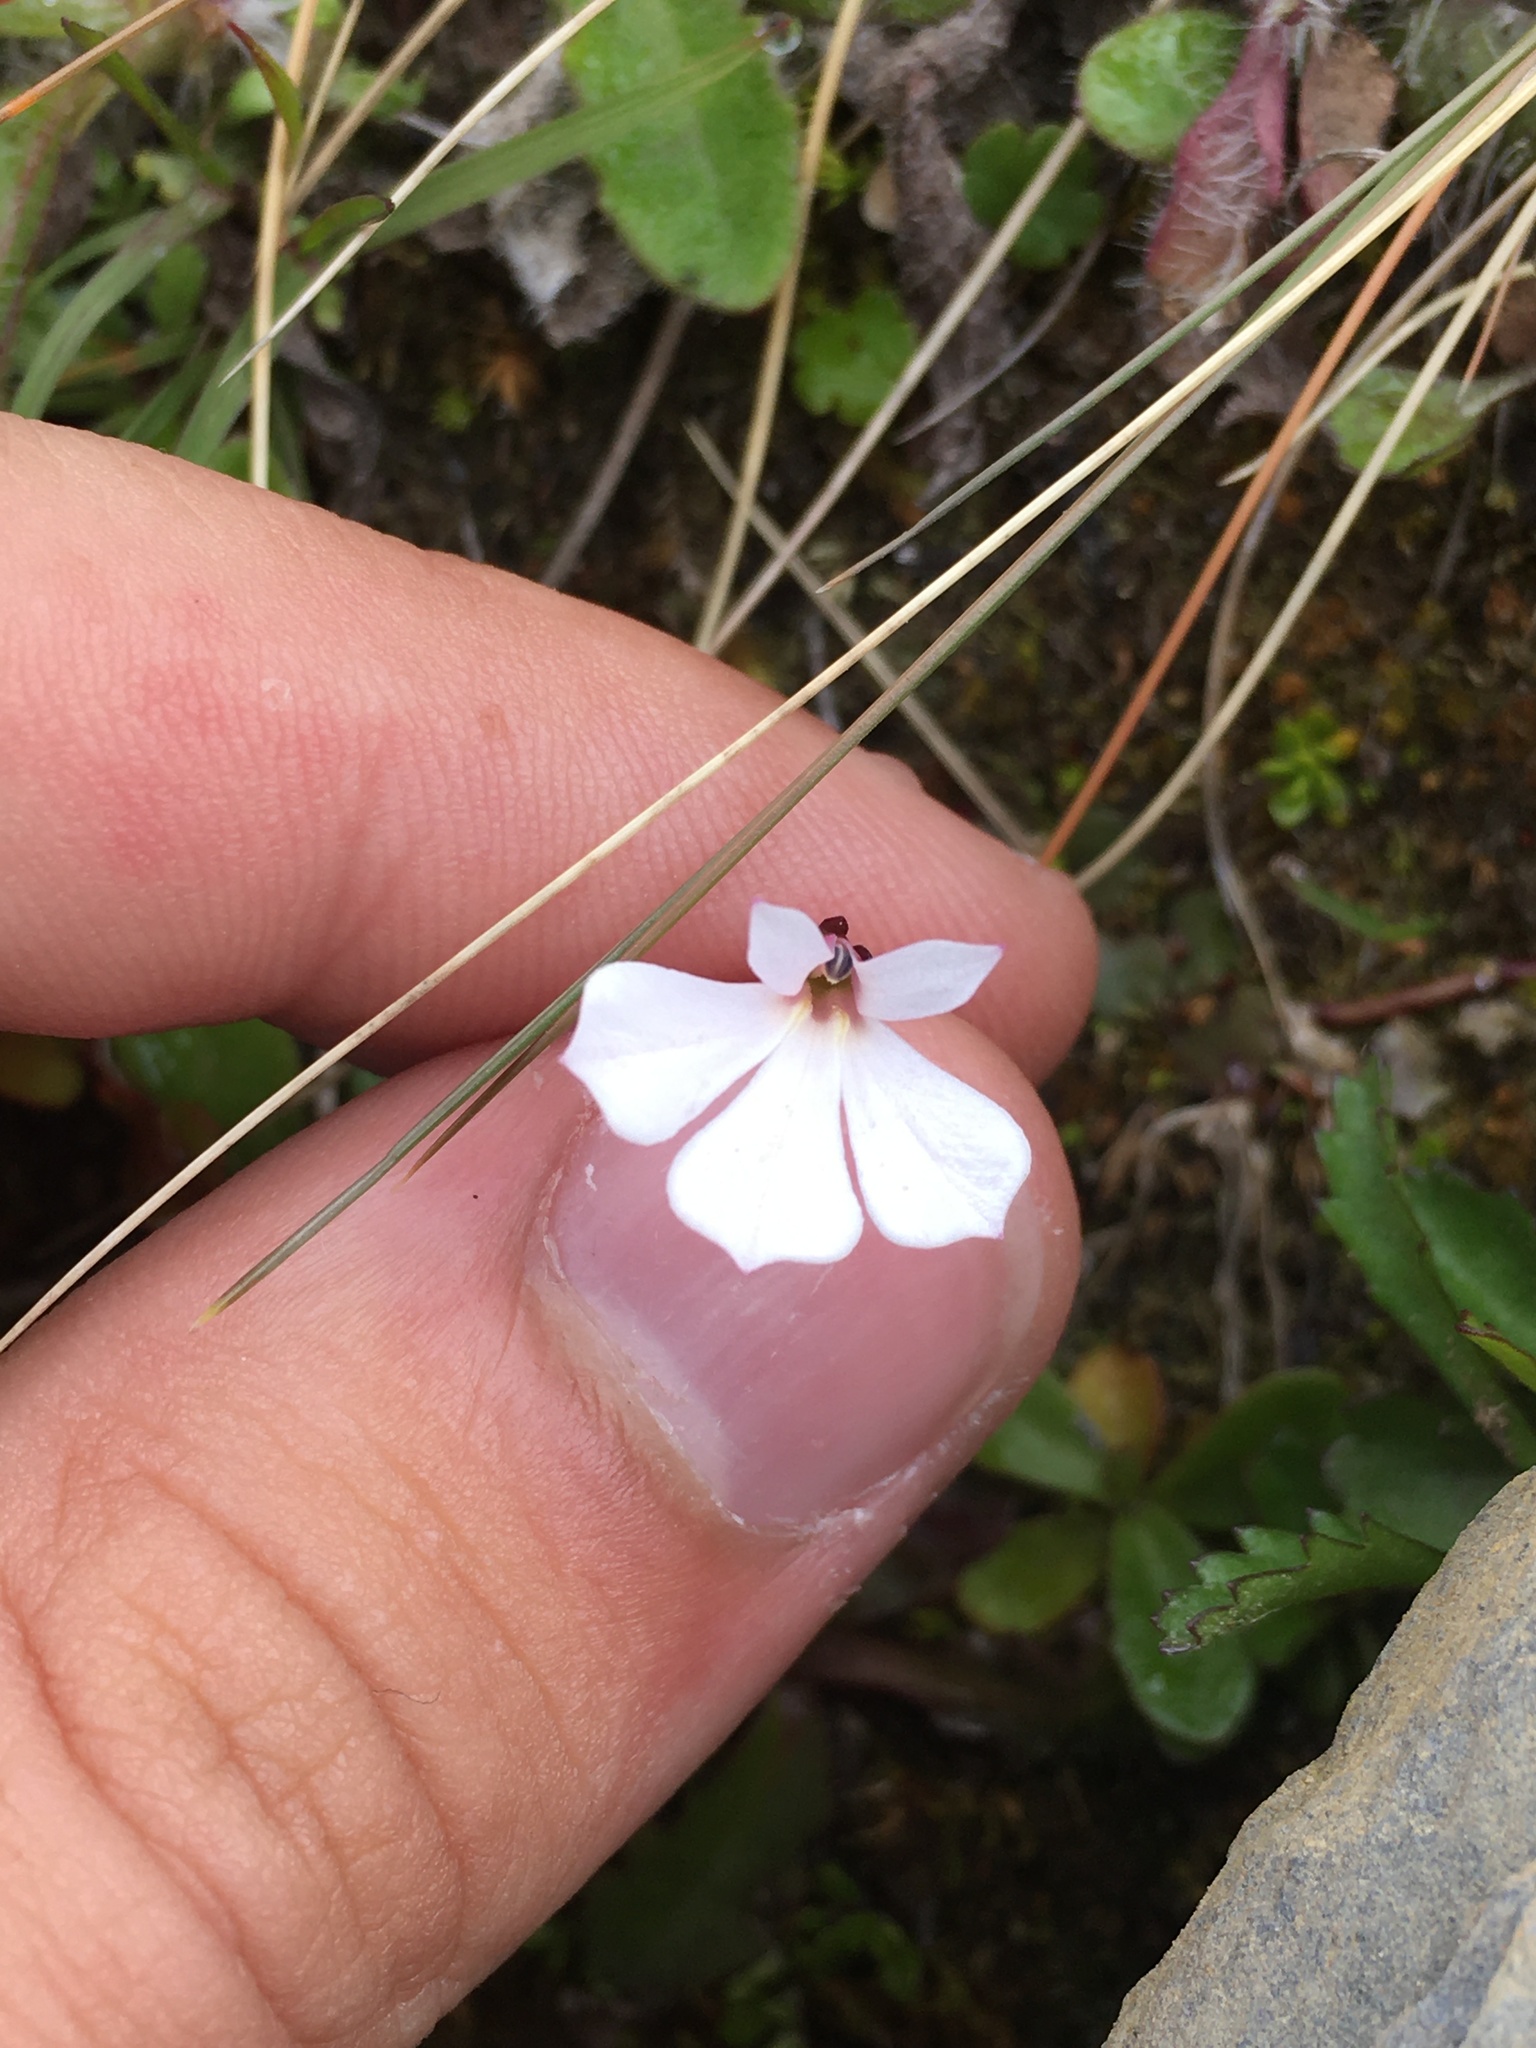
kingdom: Plantae
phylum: Tracheophyta
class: Magnoliopsida
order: Asterales
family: Campanulaceae
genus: Lobelia
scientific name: Lobelia angulata
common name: Lawn lobelia
